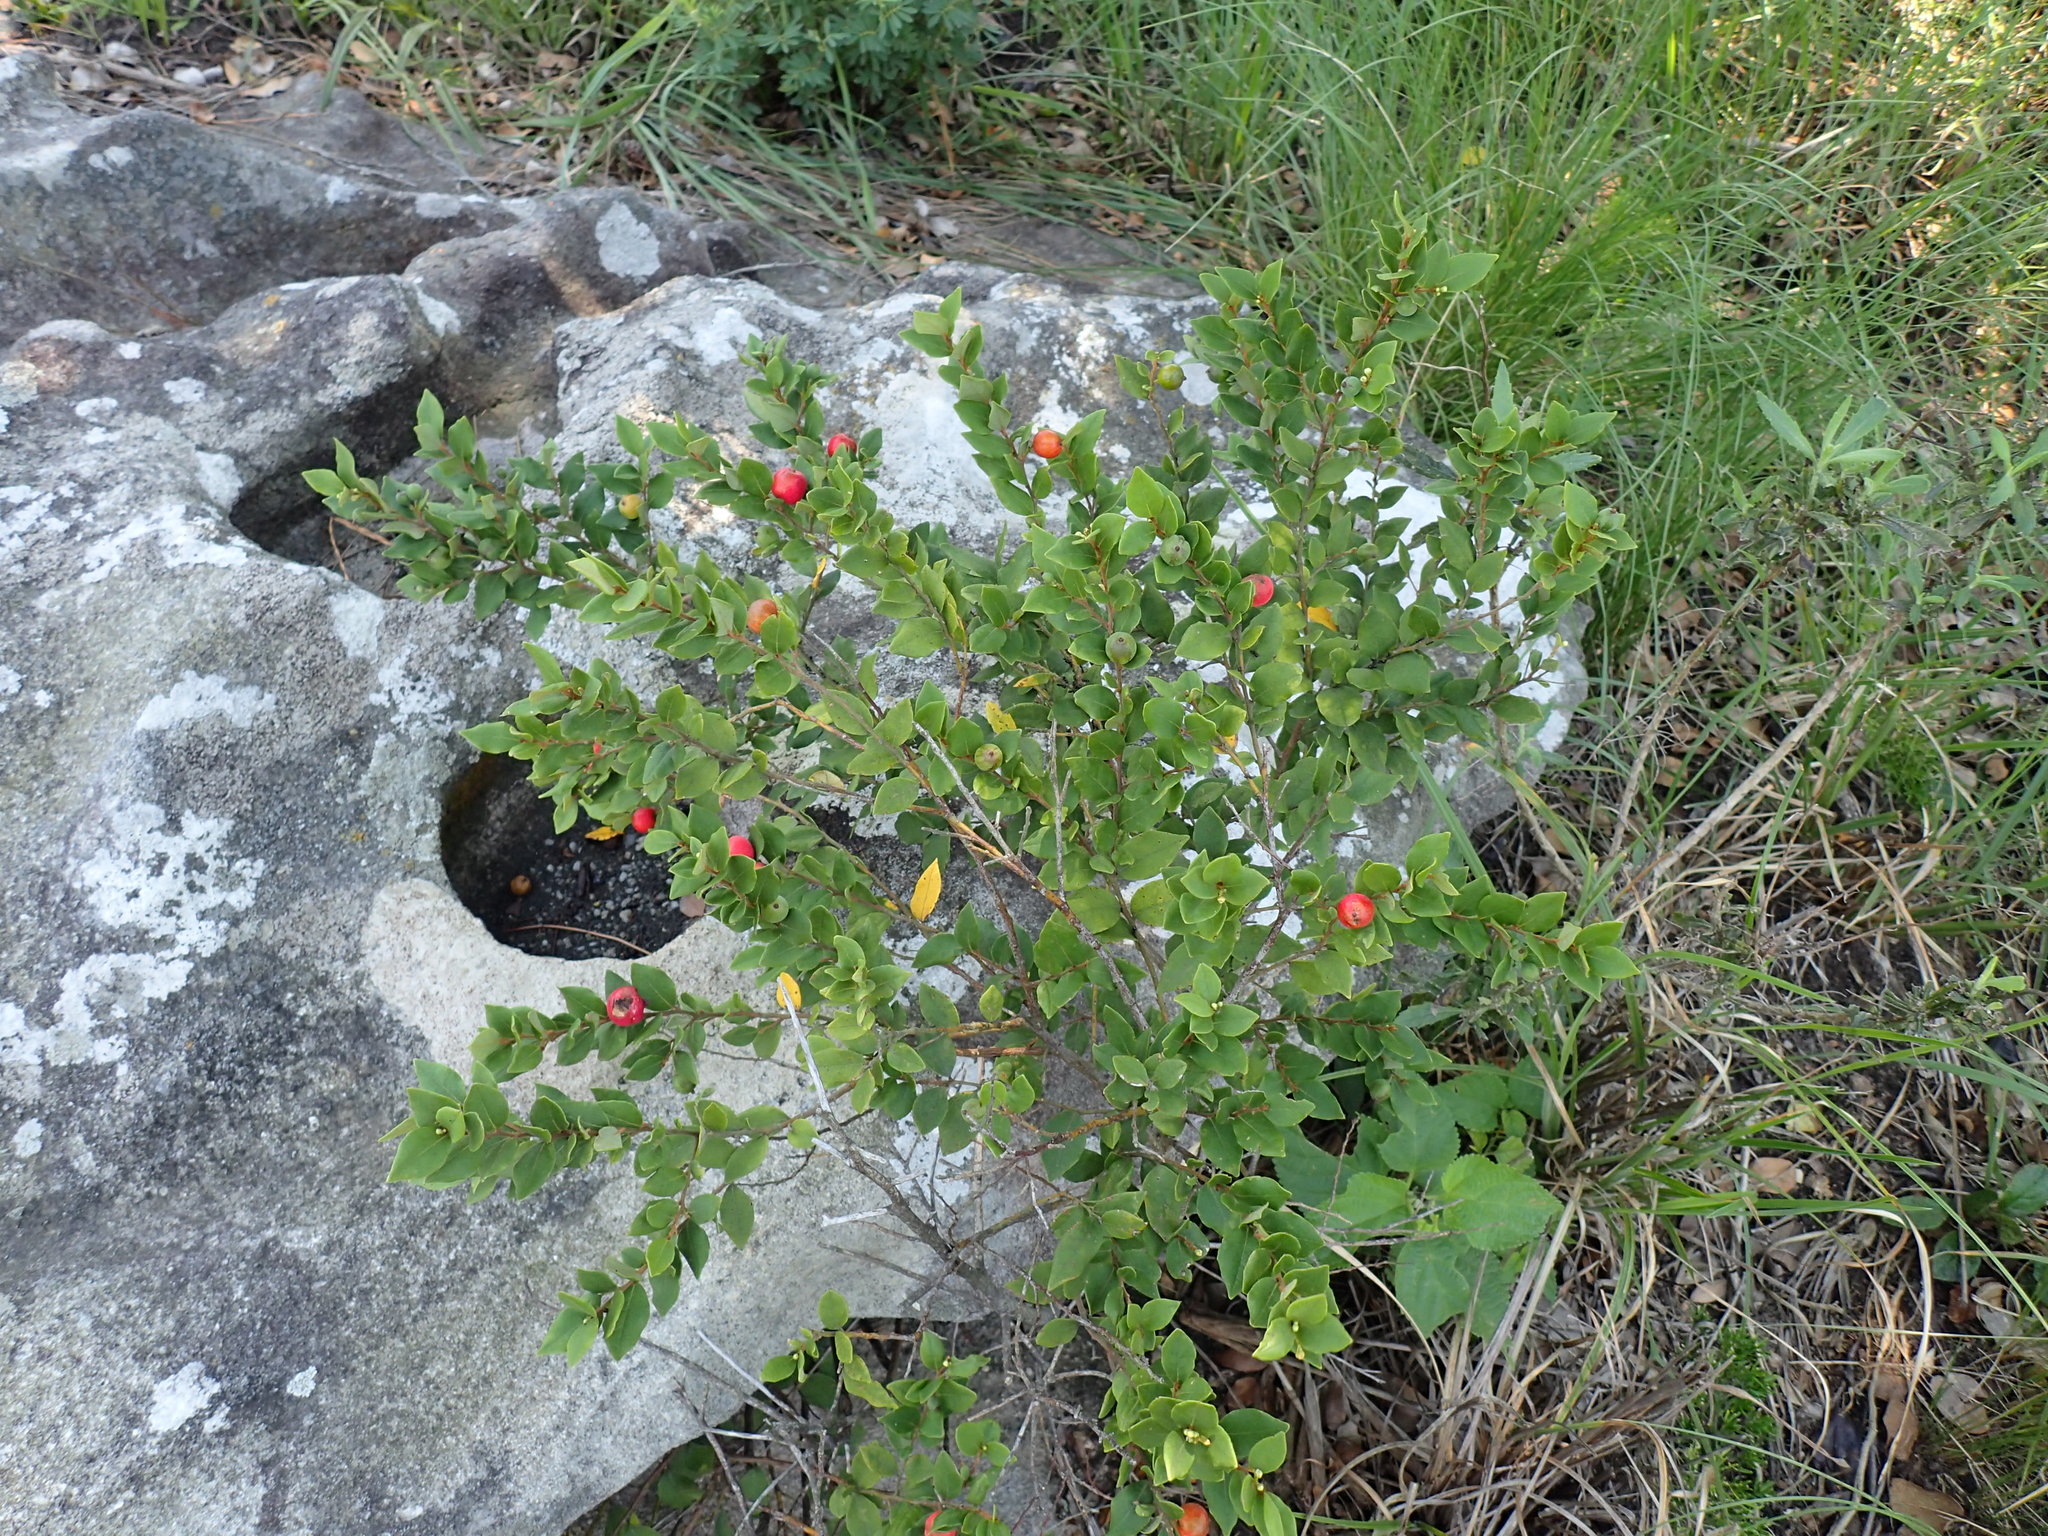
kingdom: Plantae
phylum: Tracheophyta
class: Magnoliopsida
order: Laurales
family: Lauraceae
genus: Cryptocarya
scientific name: Cryptocarya wyliei
